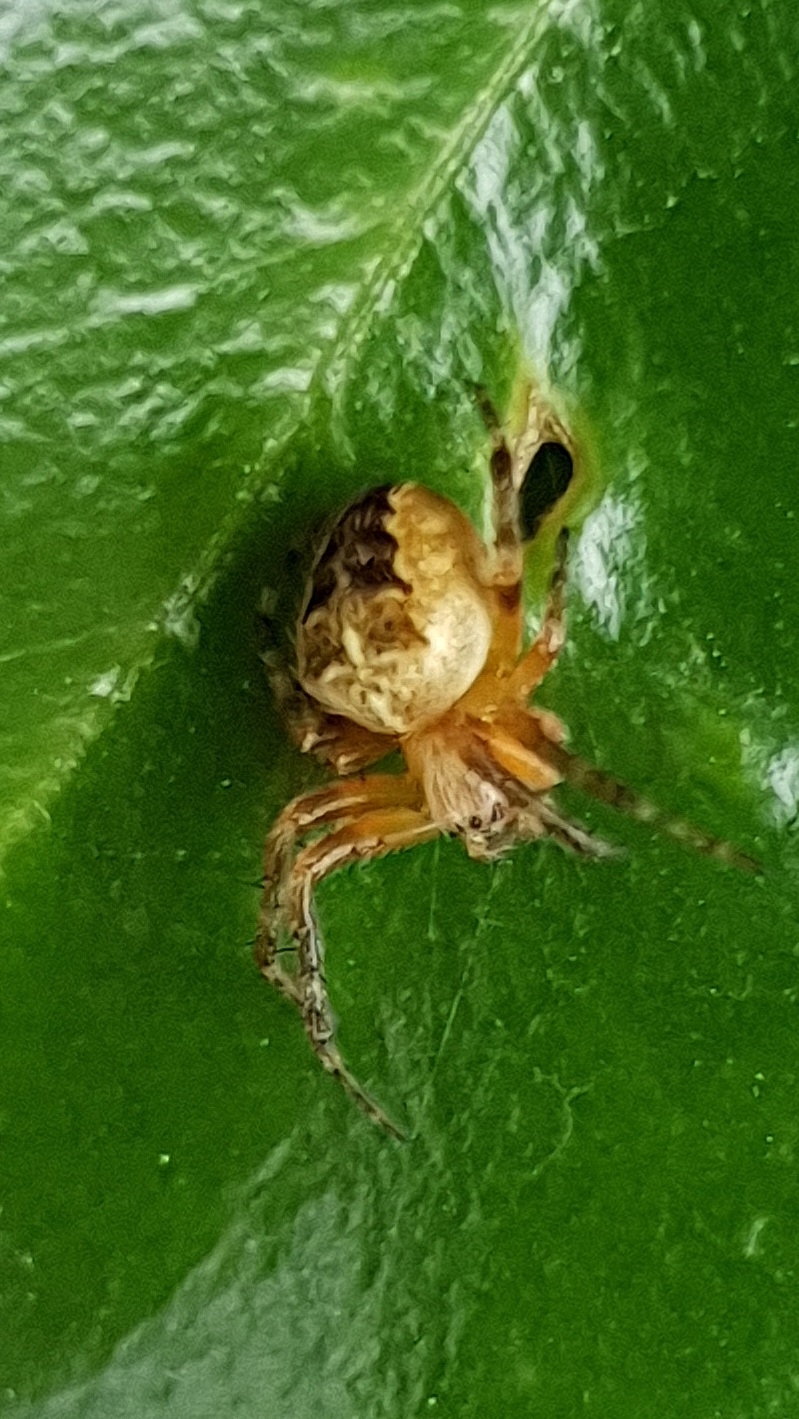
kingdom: Animalia
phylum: Arthropoda
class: Arachnida
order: Araneae
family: Araneidae
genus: Araneus
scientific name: Araneus diadematus
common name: Cross orbweaver
